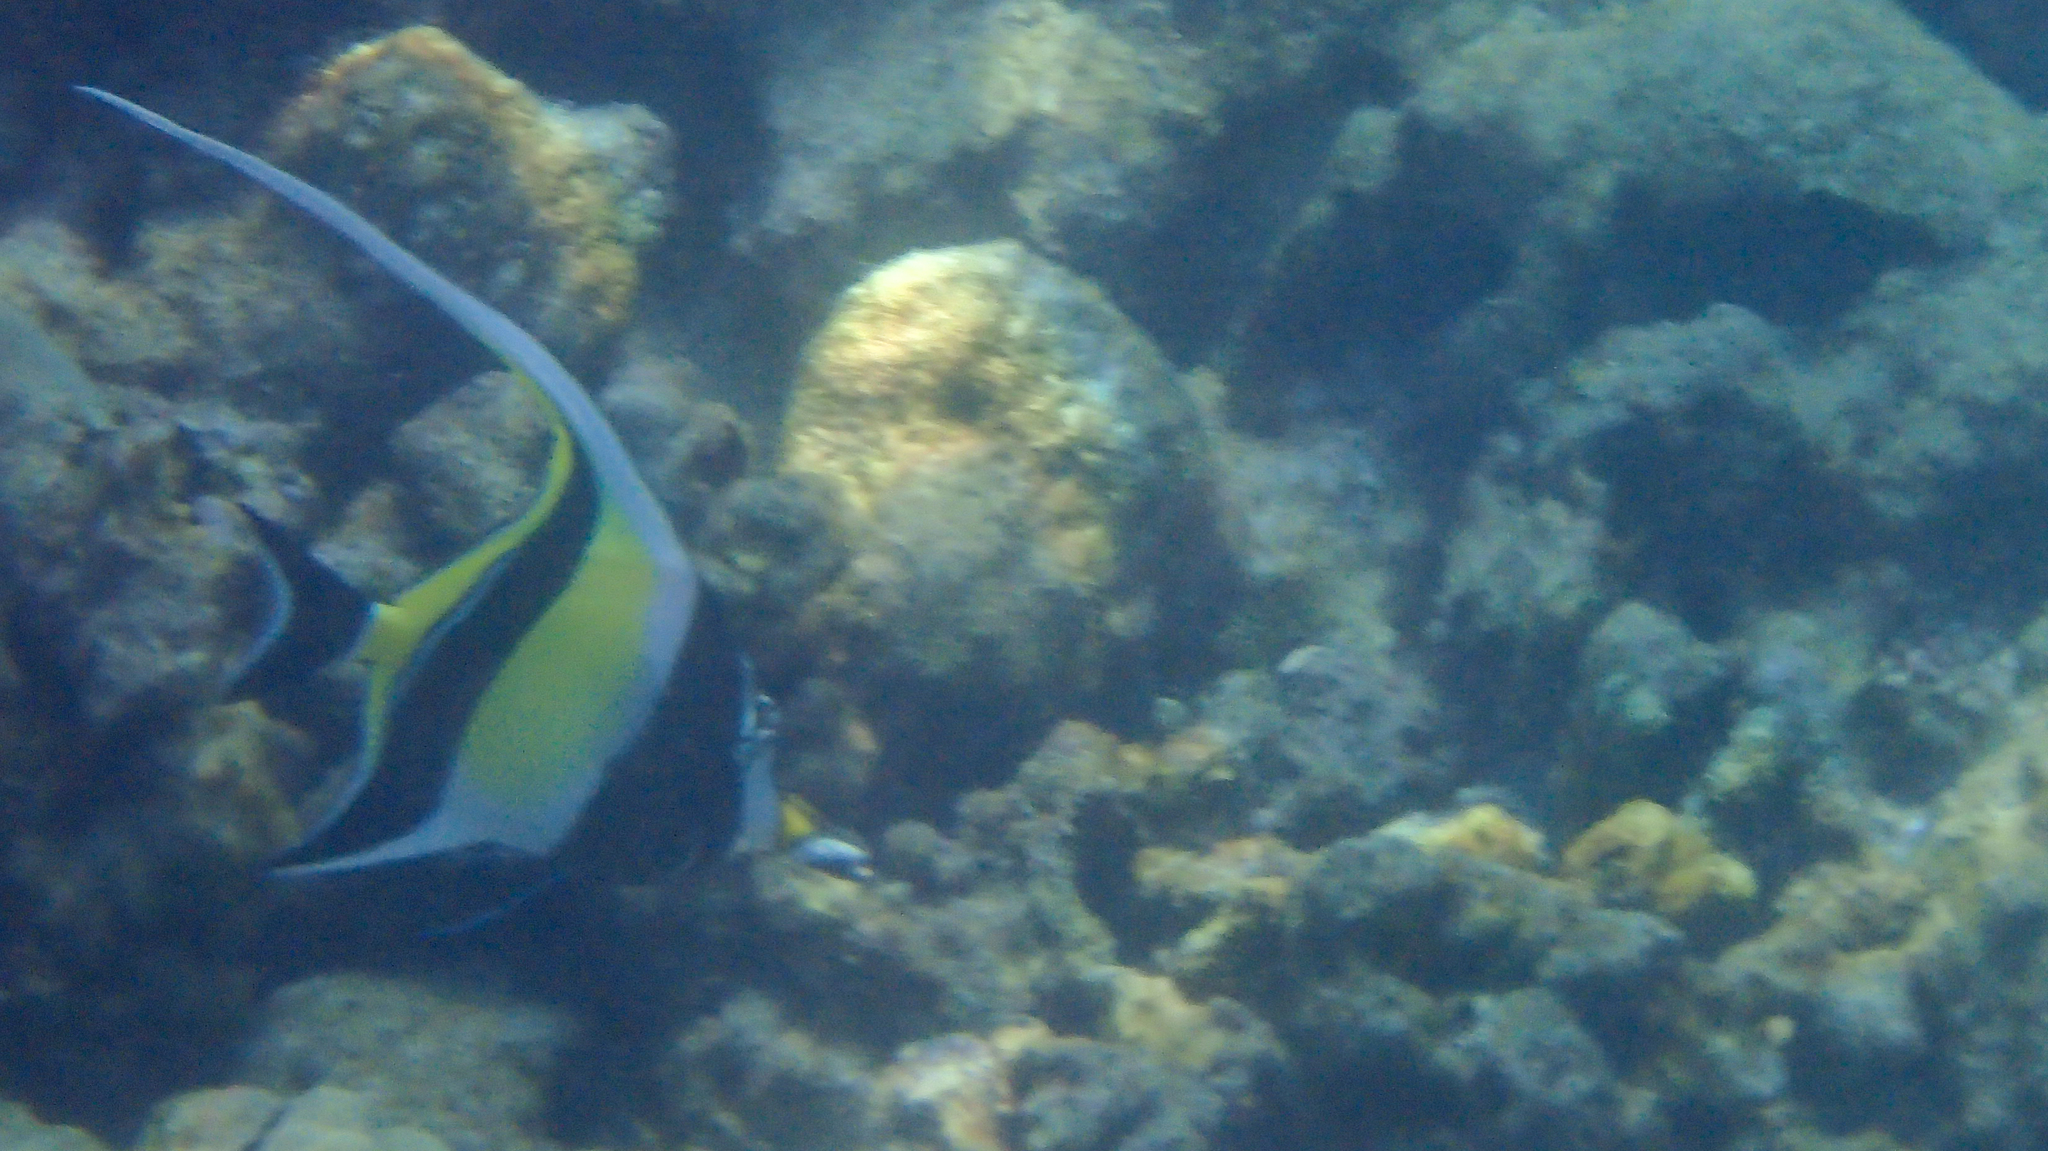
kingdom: Animalia
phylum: Chordata
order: Perciformes
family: Zanclidae
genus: Zanclus
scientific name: Zanclus cornutus
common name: Moorish idol
